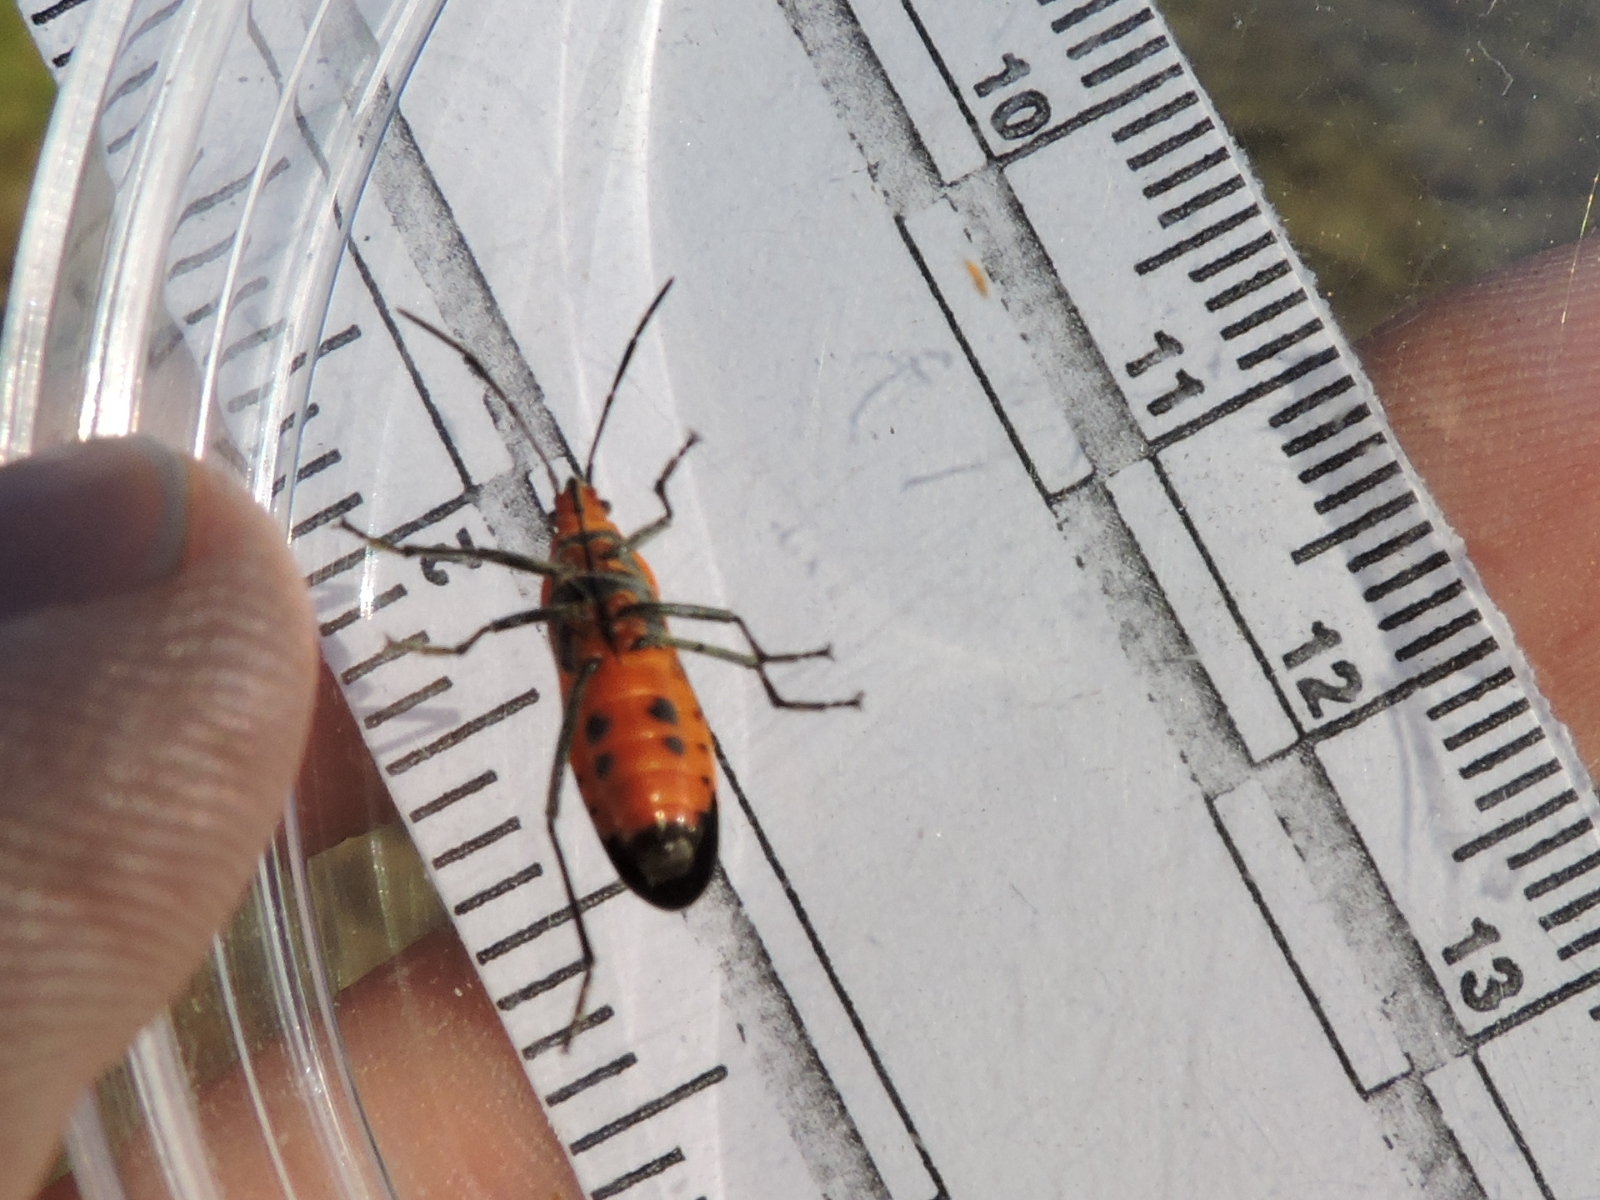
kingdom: Animalia
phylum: Arthropoda
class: Insecta
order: Hemiptera
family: Lygaeidae
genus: Oncopeltus
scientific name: Oncopeltus fasciatus
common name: Large milkweed bug
